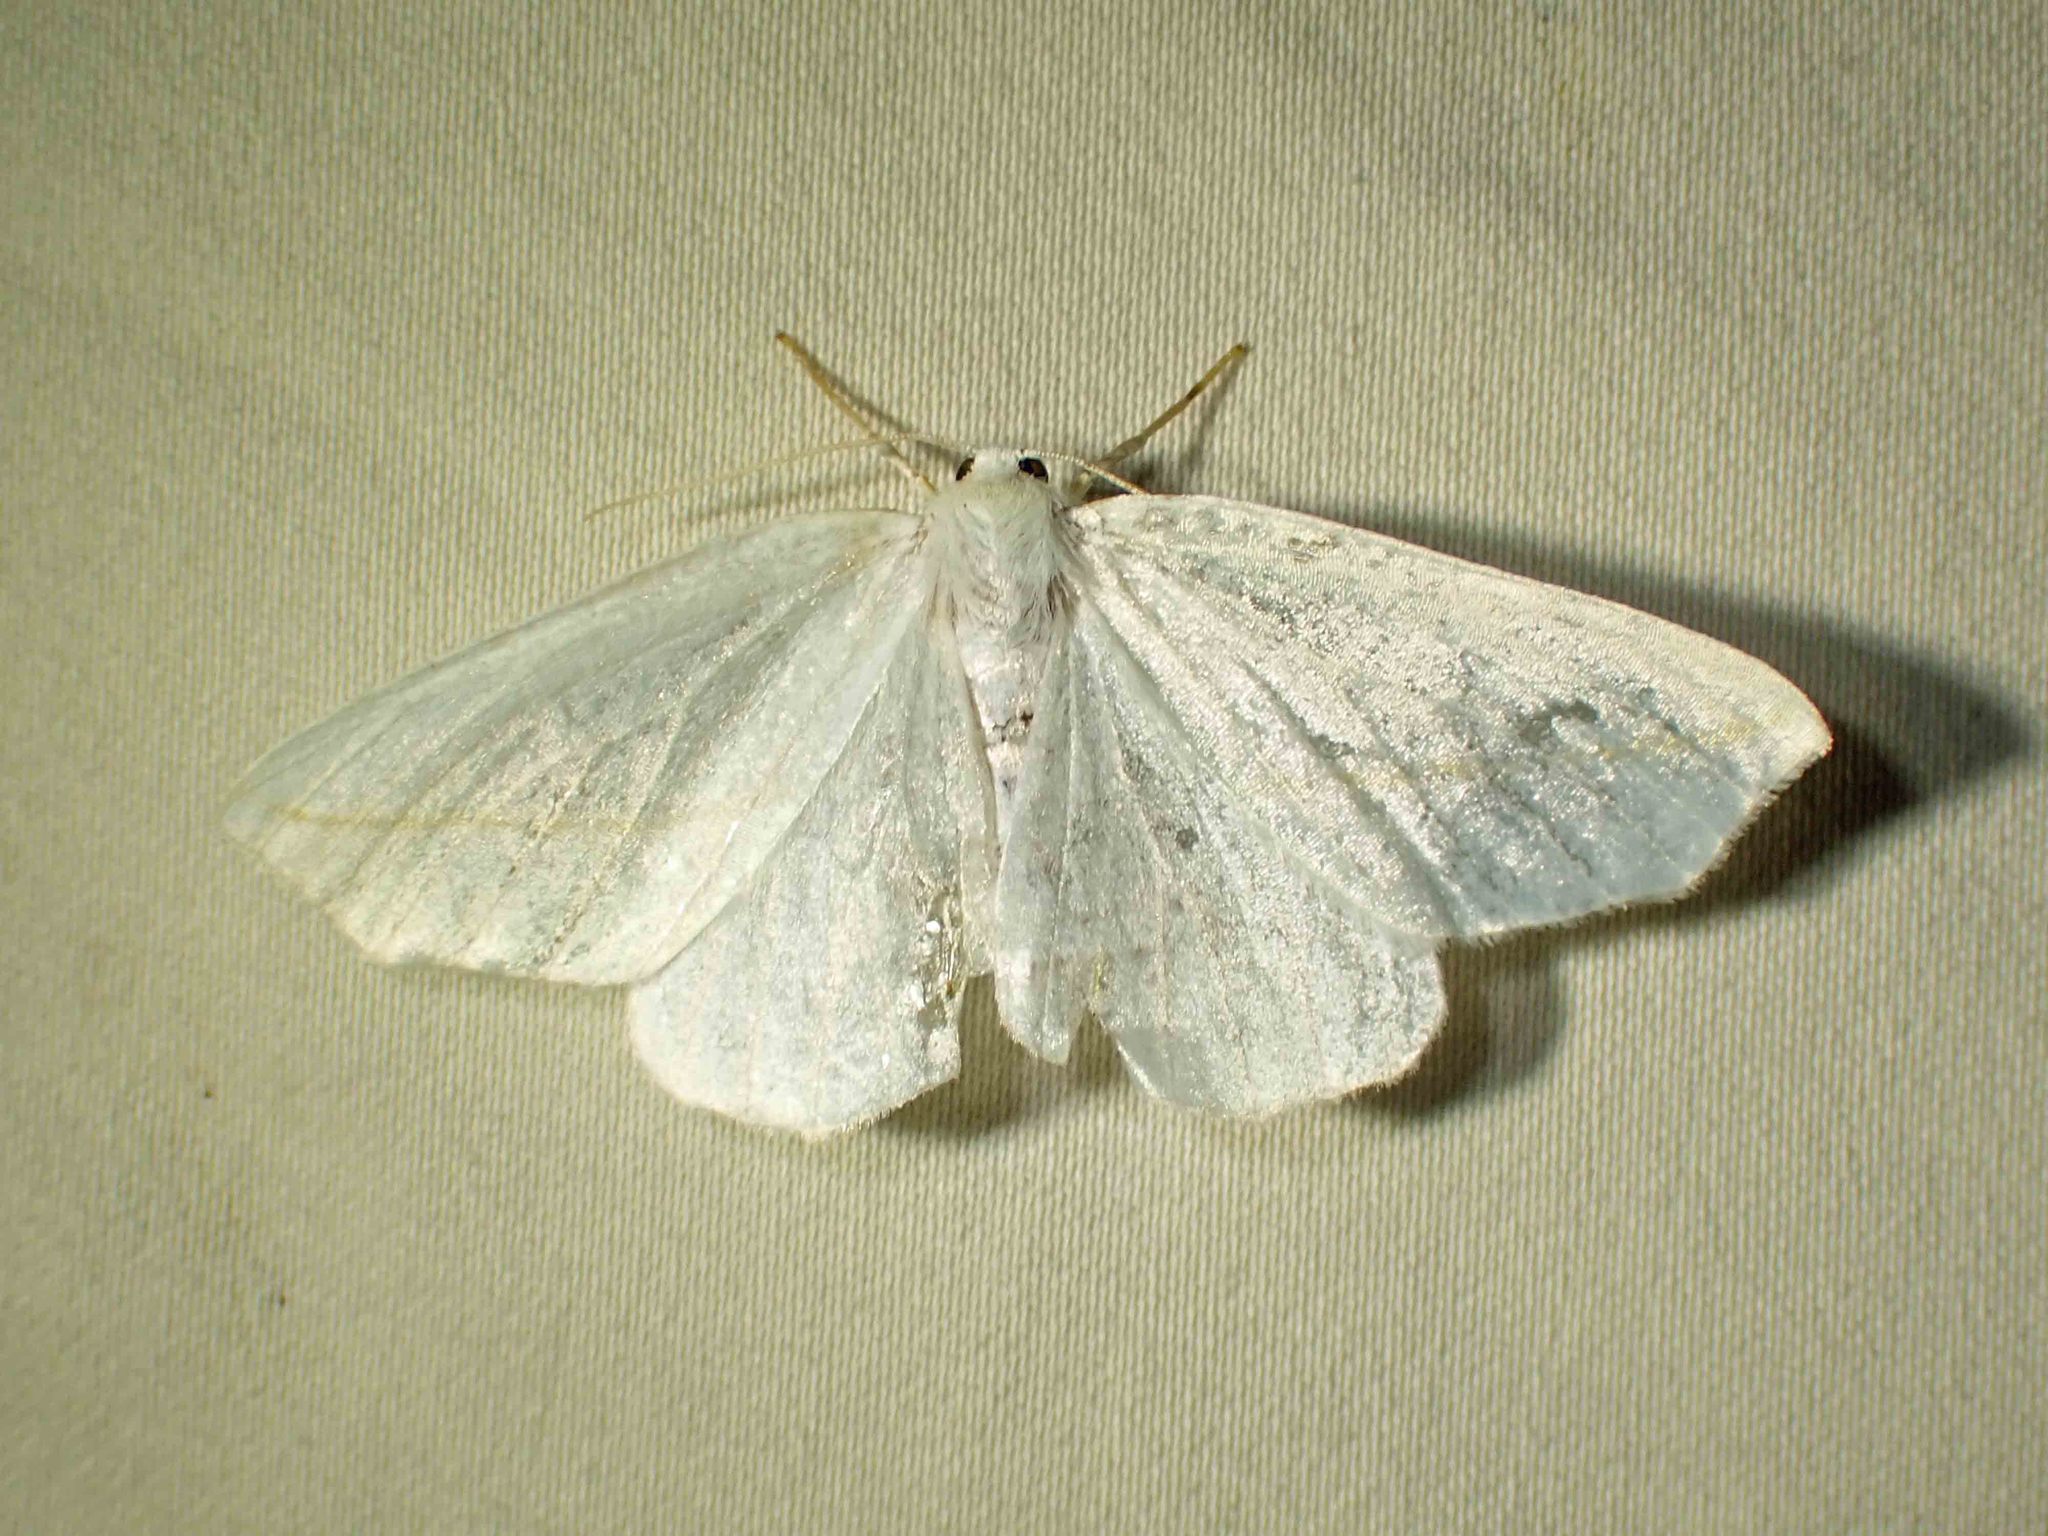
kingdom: Animalia
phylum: Arthropoda
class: Insecta
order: Lepidoptera
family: Geometridae
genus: Tetracis
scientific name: Tetracis cachexiata
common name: White slant-line
